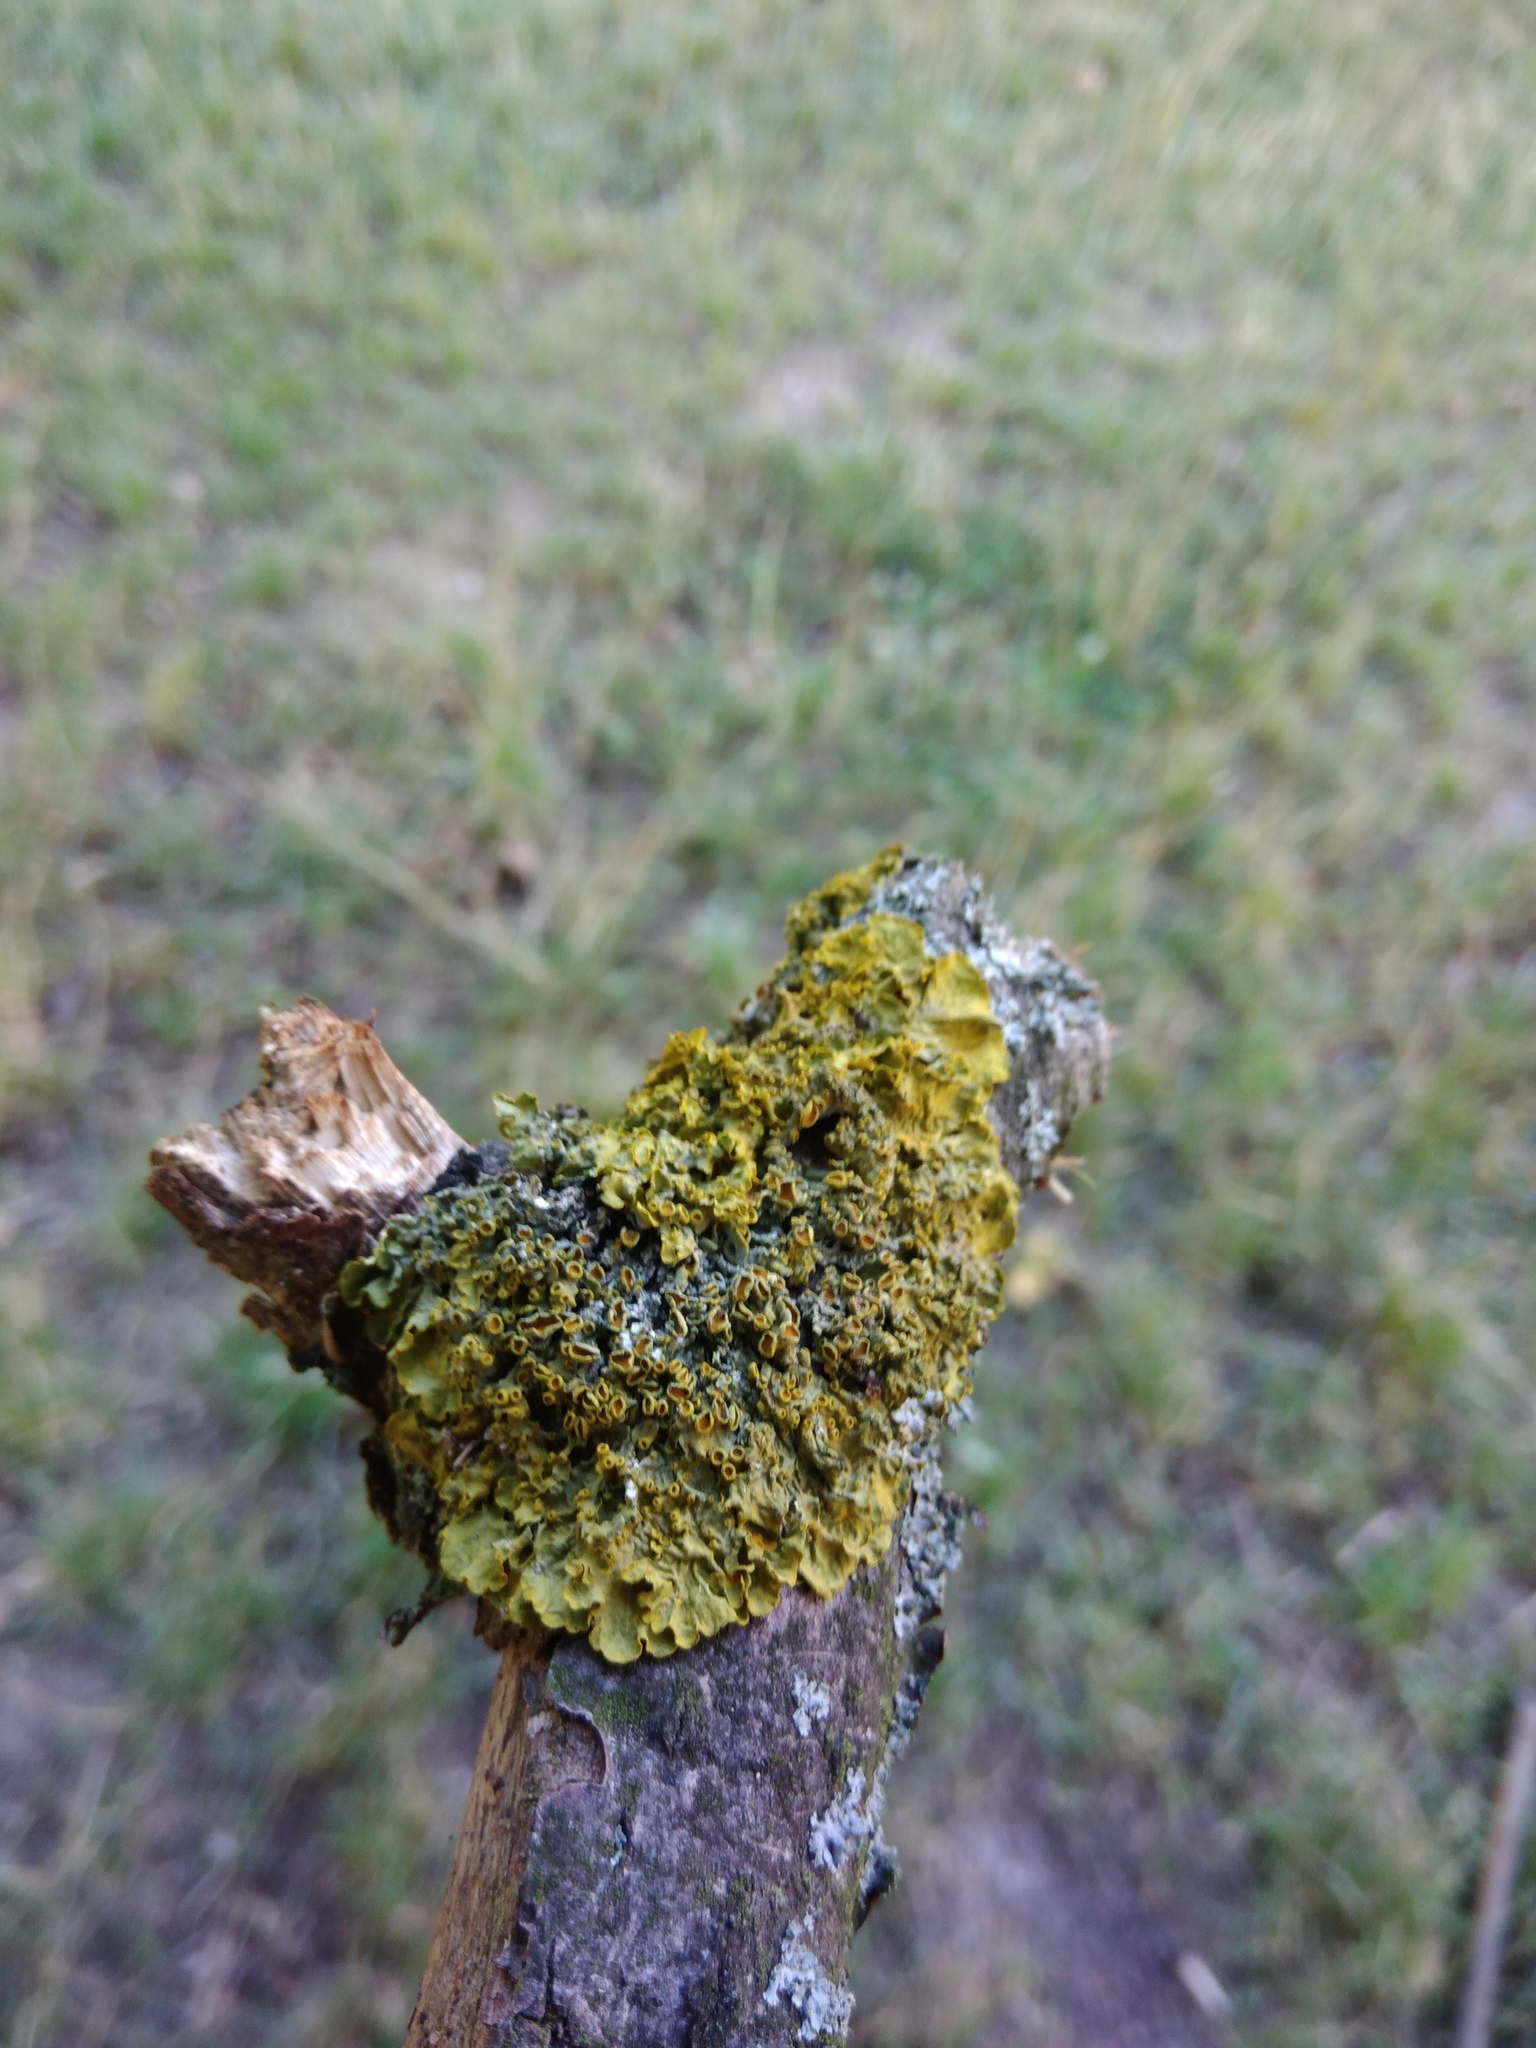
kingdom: Fungi
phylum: Ascomycota
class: Lecanoromycetes
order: Teloschistales
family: Teloschistaceae
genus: Xanthoria
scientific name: Xanthoria parietina
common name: Common orange lichen
